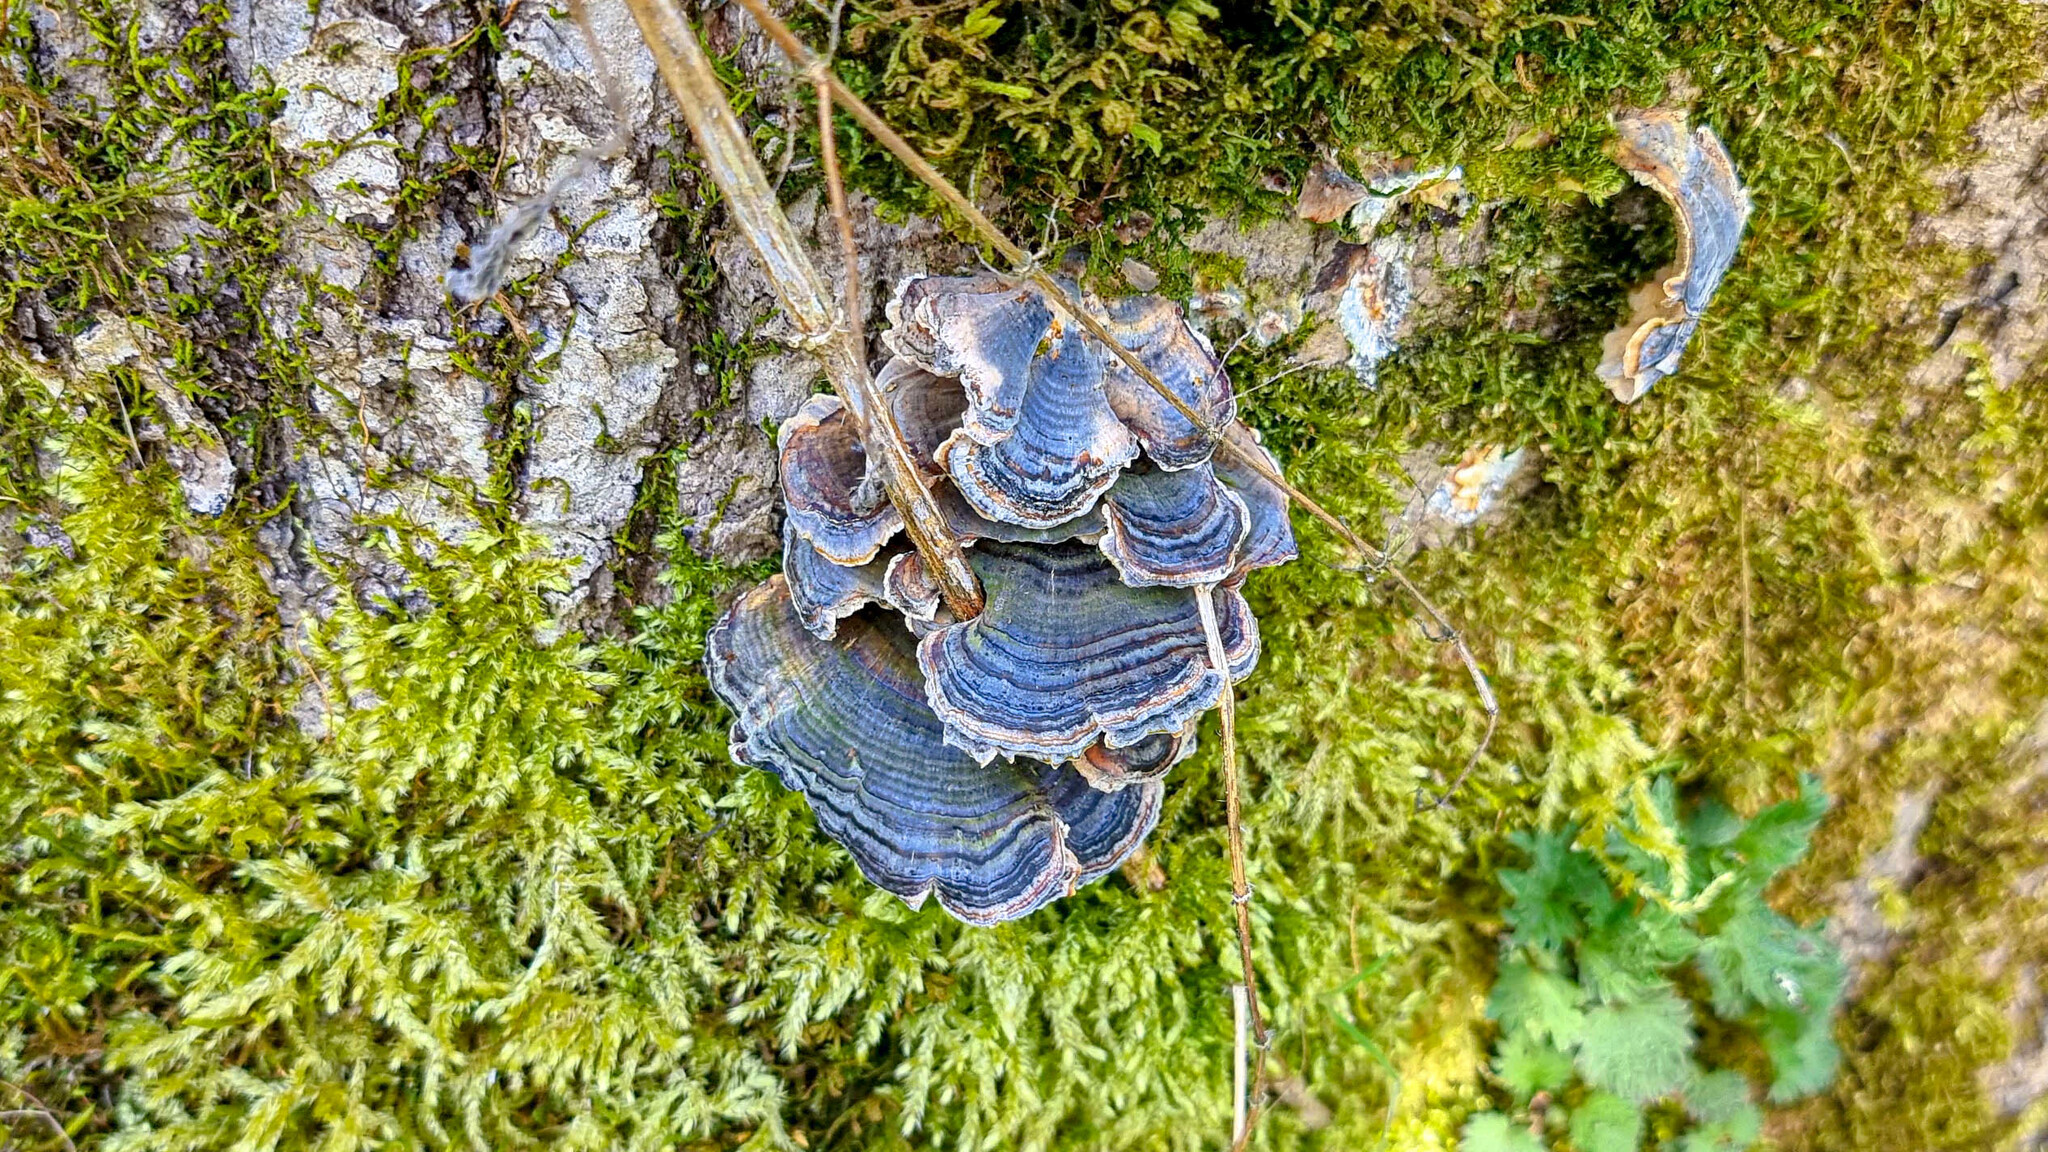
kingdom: Fungi
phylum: Basidiomycota
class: Agaricomycetes
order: Polyporales
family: Polyporaceae
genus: Trametes
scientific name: Trametes versicolor
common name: Turkeytail
